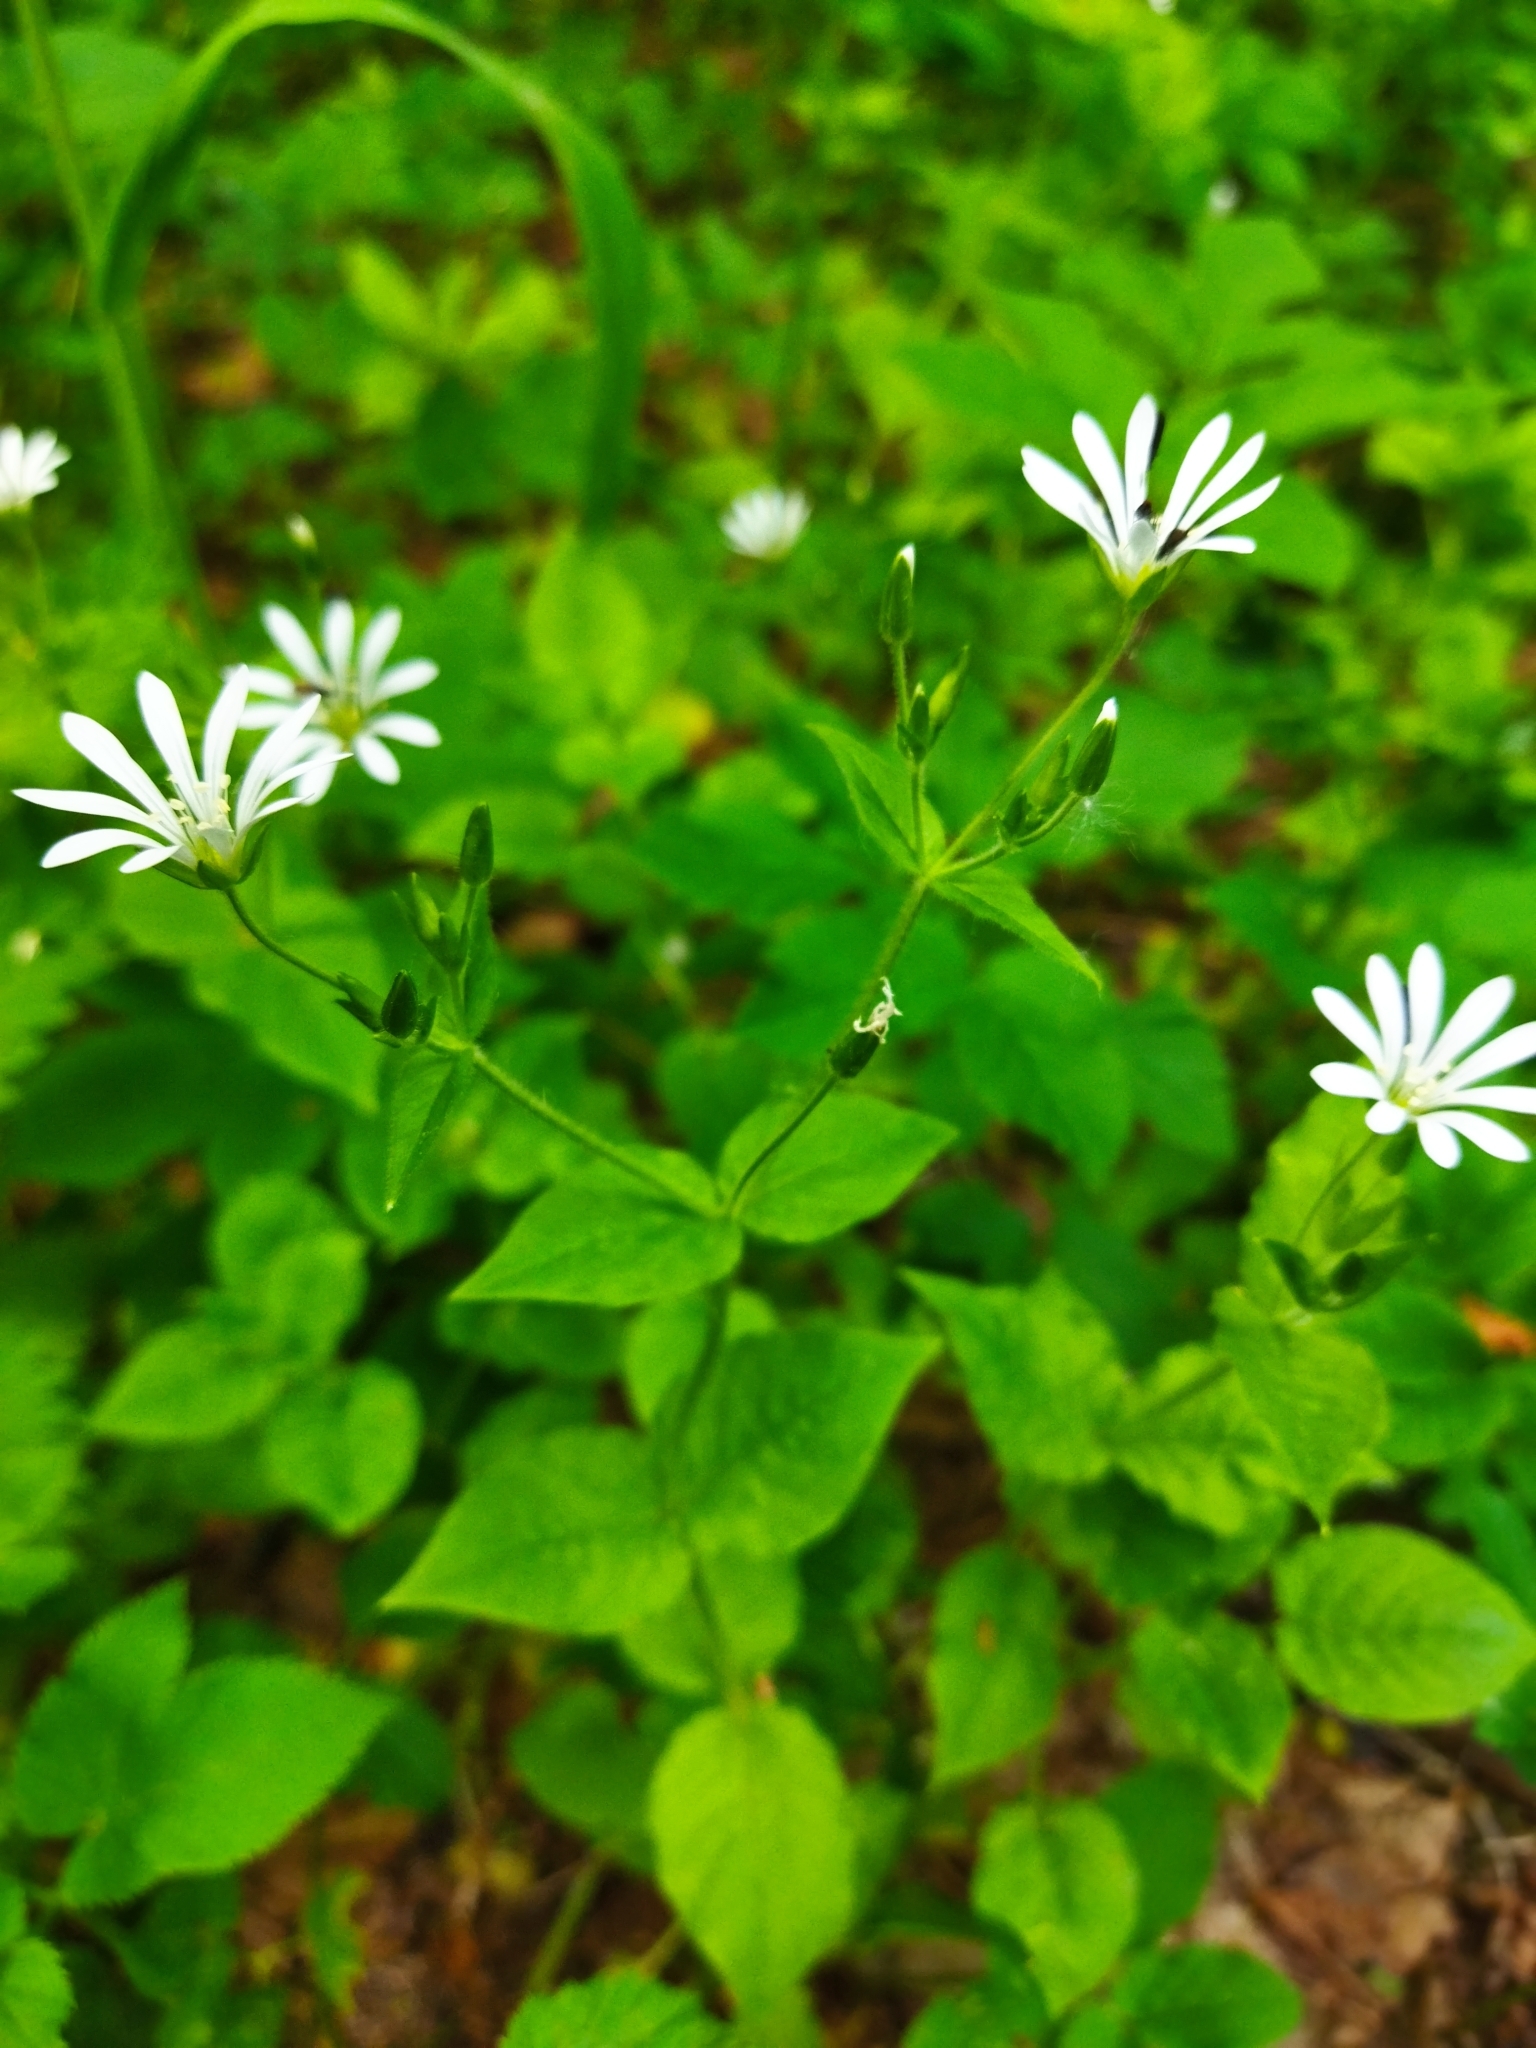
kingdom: Plantae
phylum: Tracheophyta
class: Magnoliopsida
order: Caryophyllales
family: Caryophyllaceae
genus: Stellaria
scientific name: Stellaria nemorum
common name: Wood stitchwort
